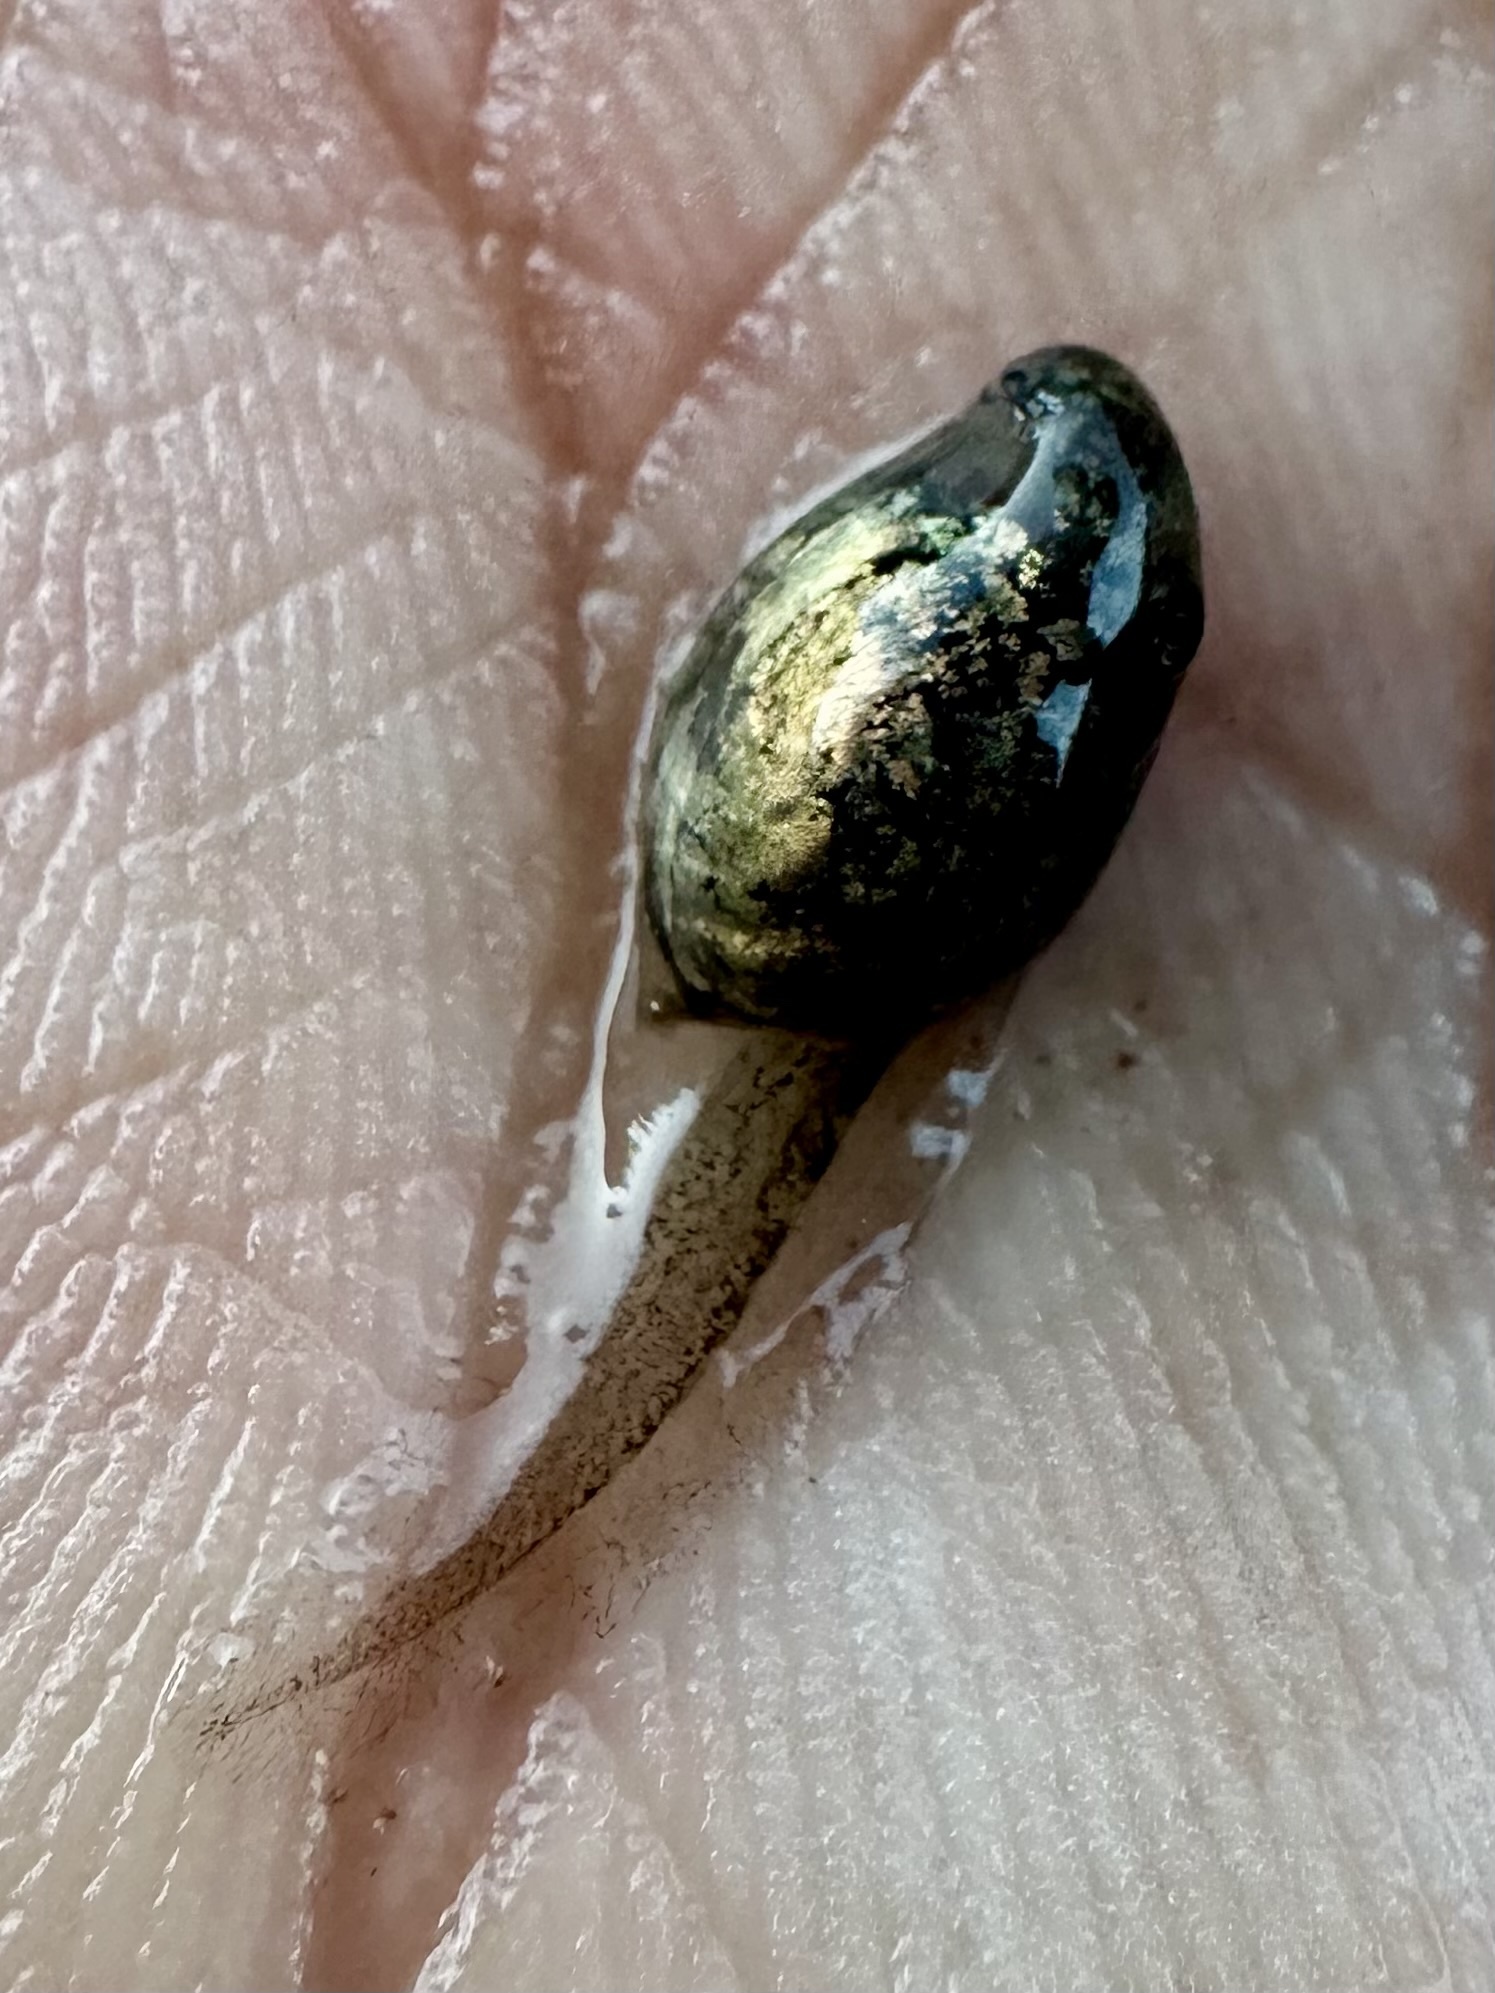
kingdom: Animalia
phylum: Chordata
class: Amphibia
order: Anura
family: Bufonidae
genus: Anaxyrus
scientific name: Anaxyrus punctatus
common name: Red-spotted toad
